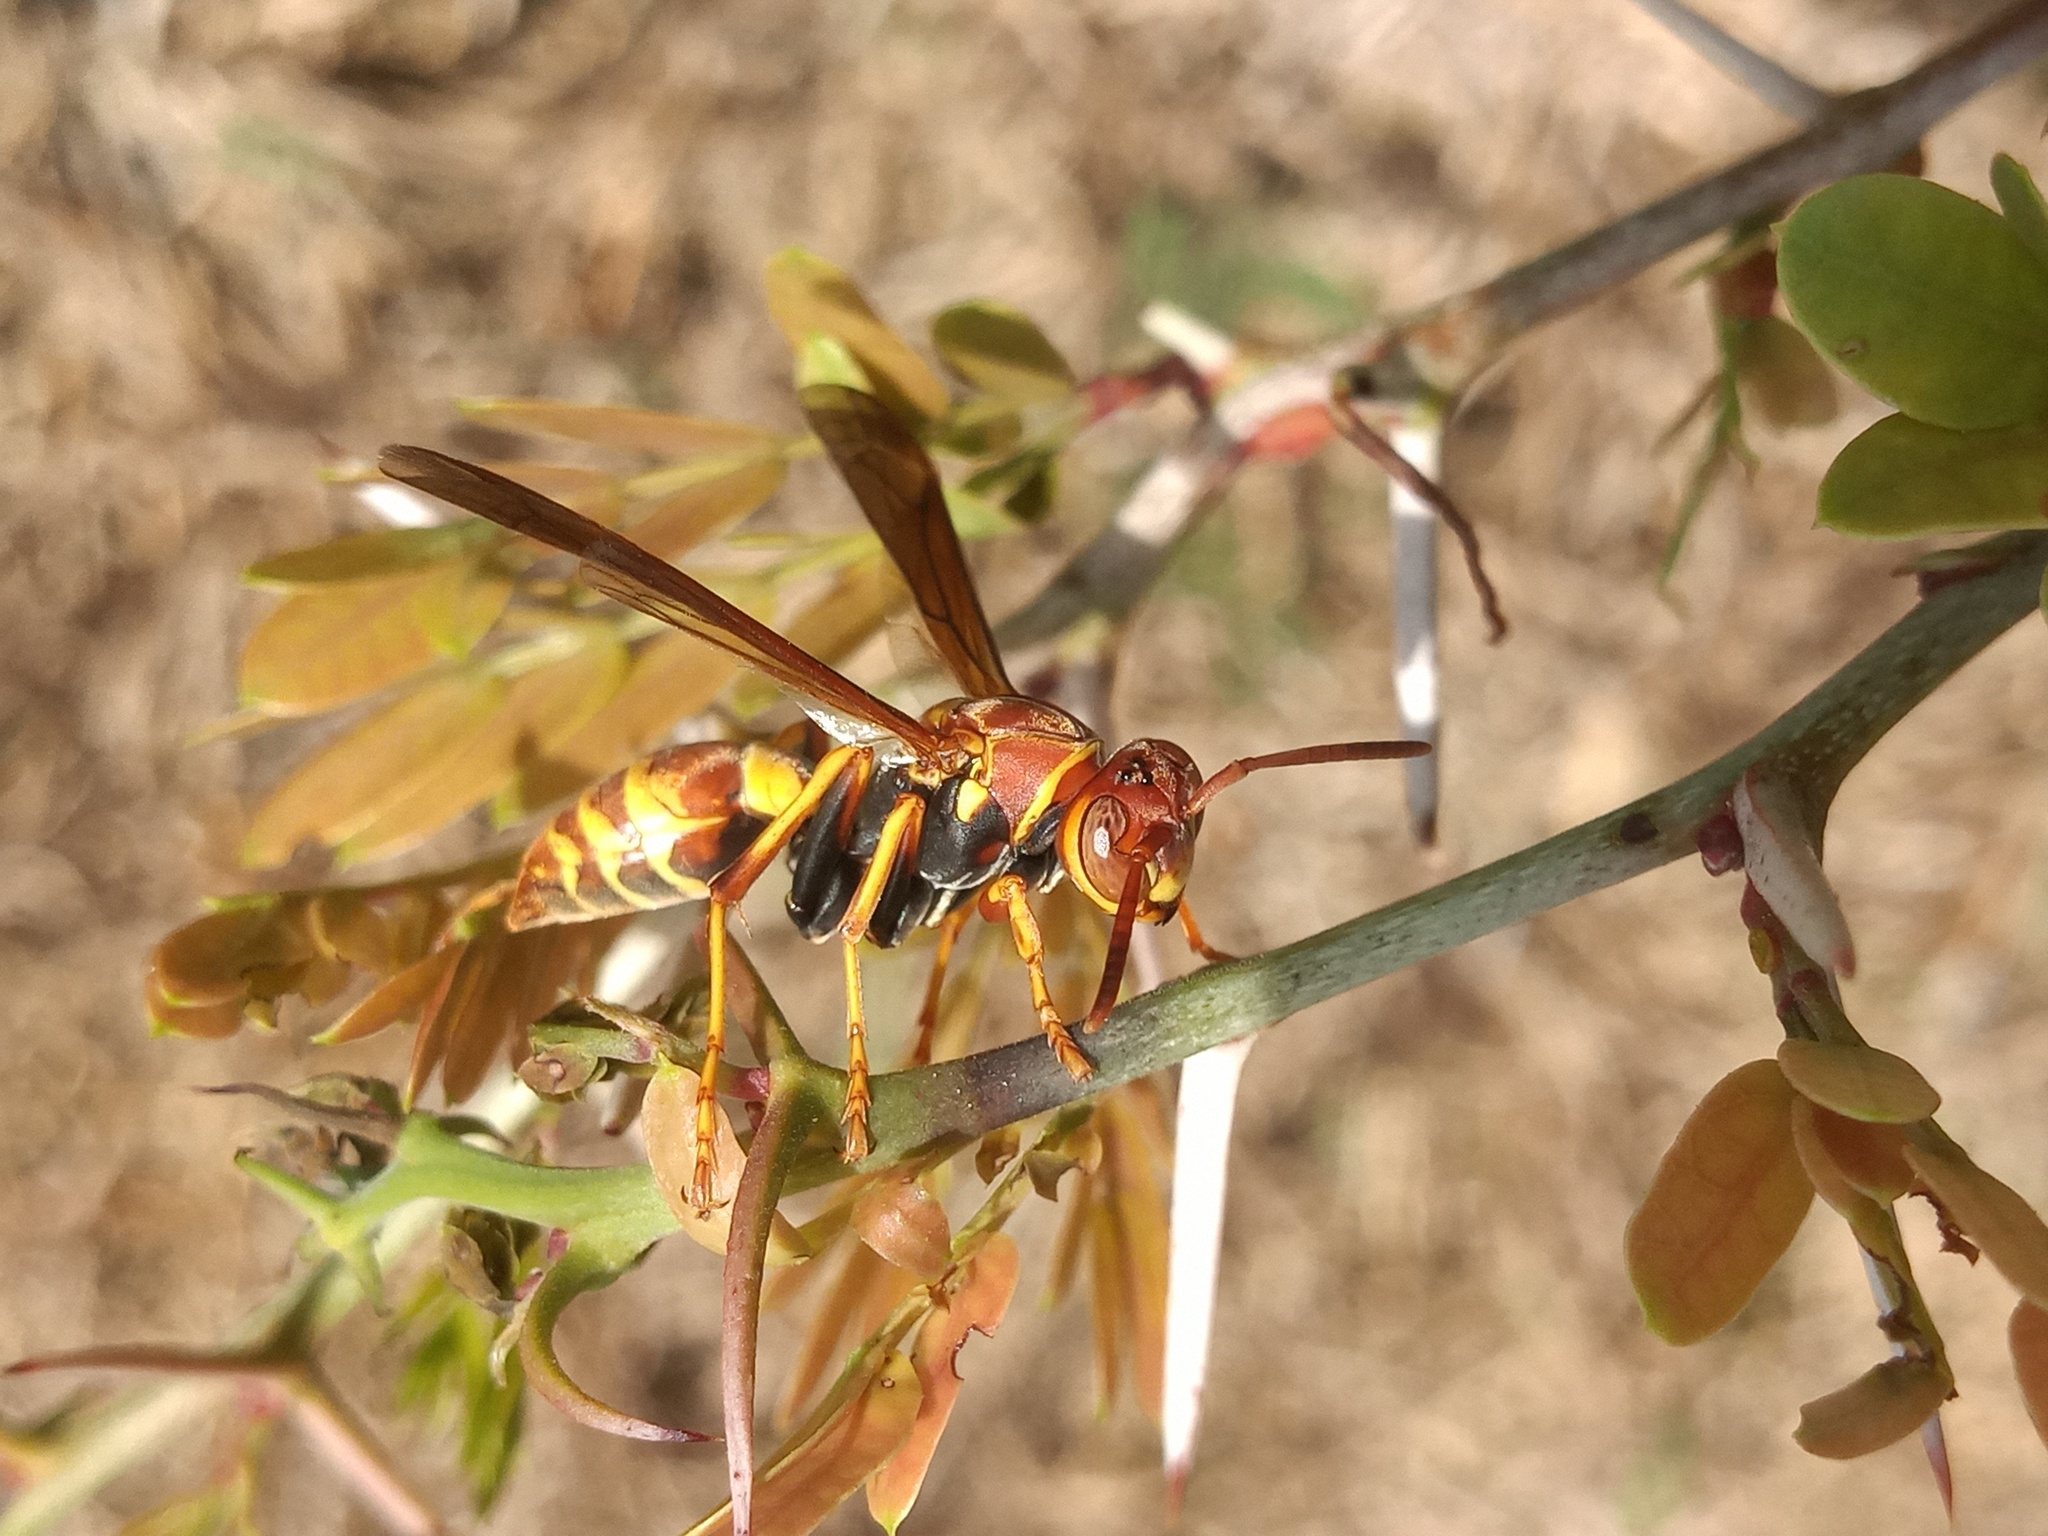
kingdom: Animalia
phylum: Arthropoda
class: Insecta
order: Hymenoptera
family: Eumenidae
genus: Polistes
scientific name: Polistes dorsalis
